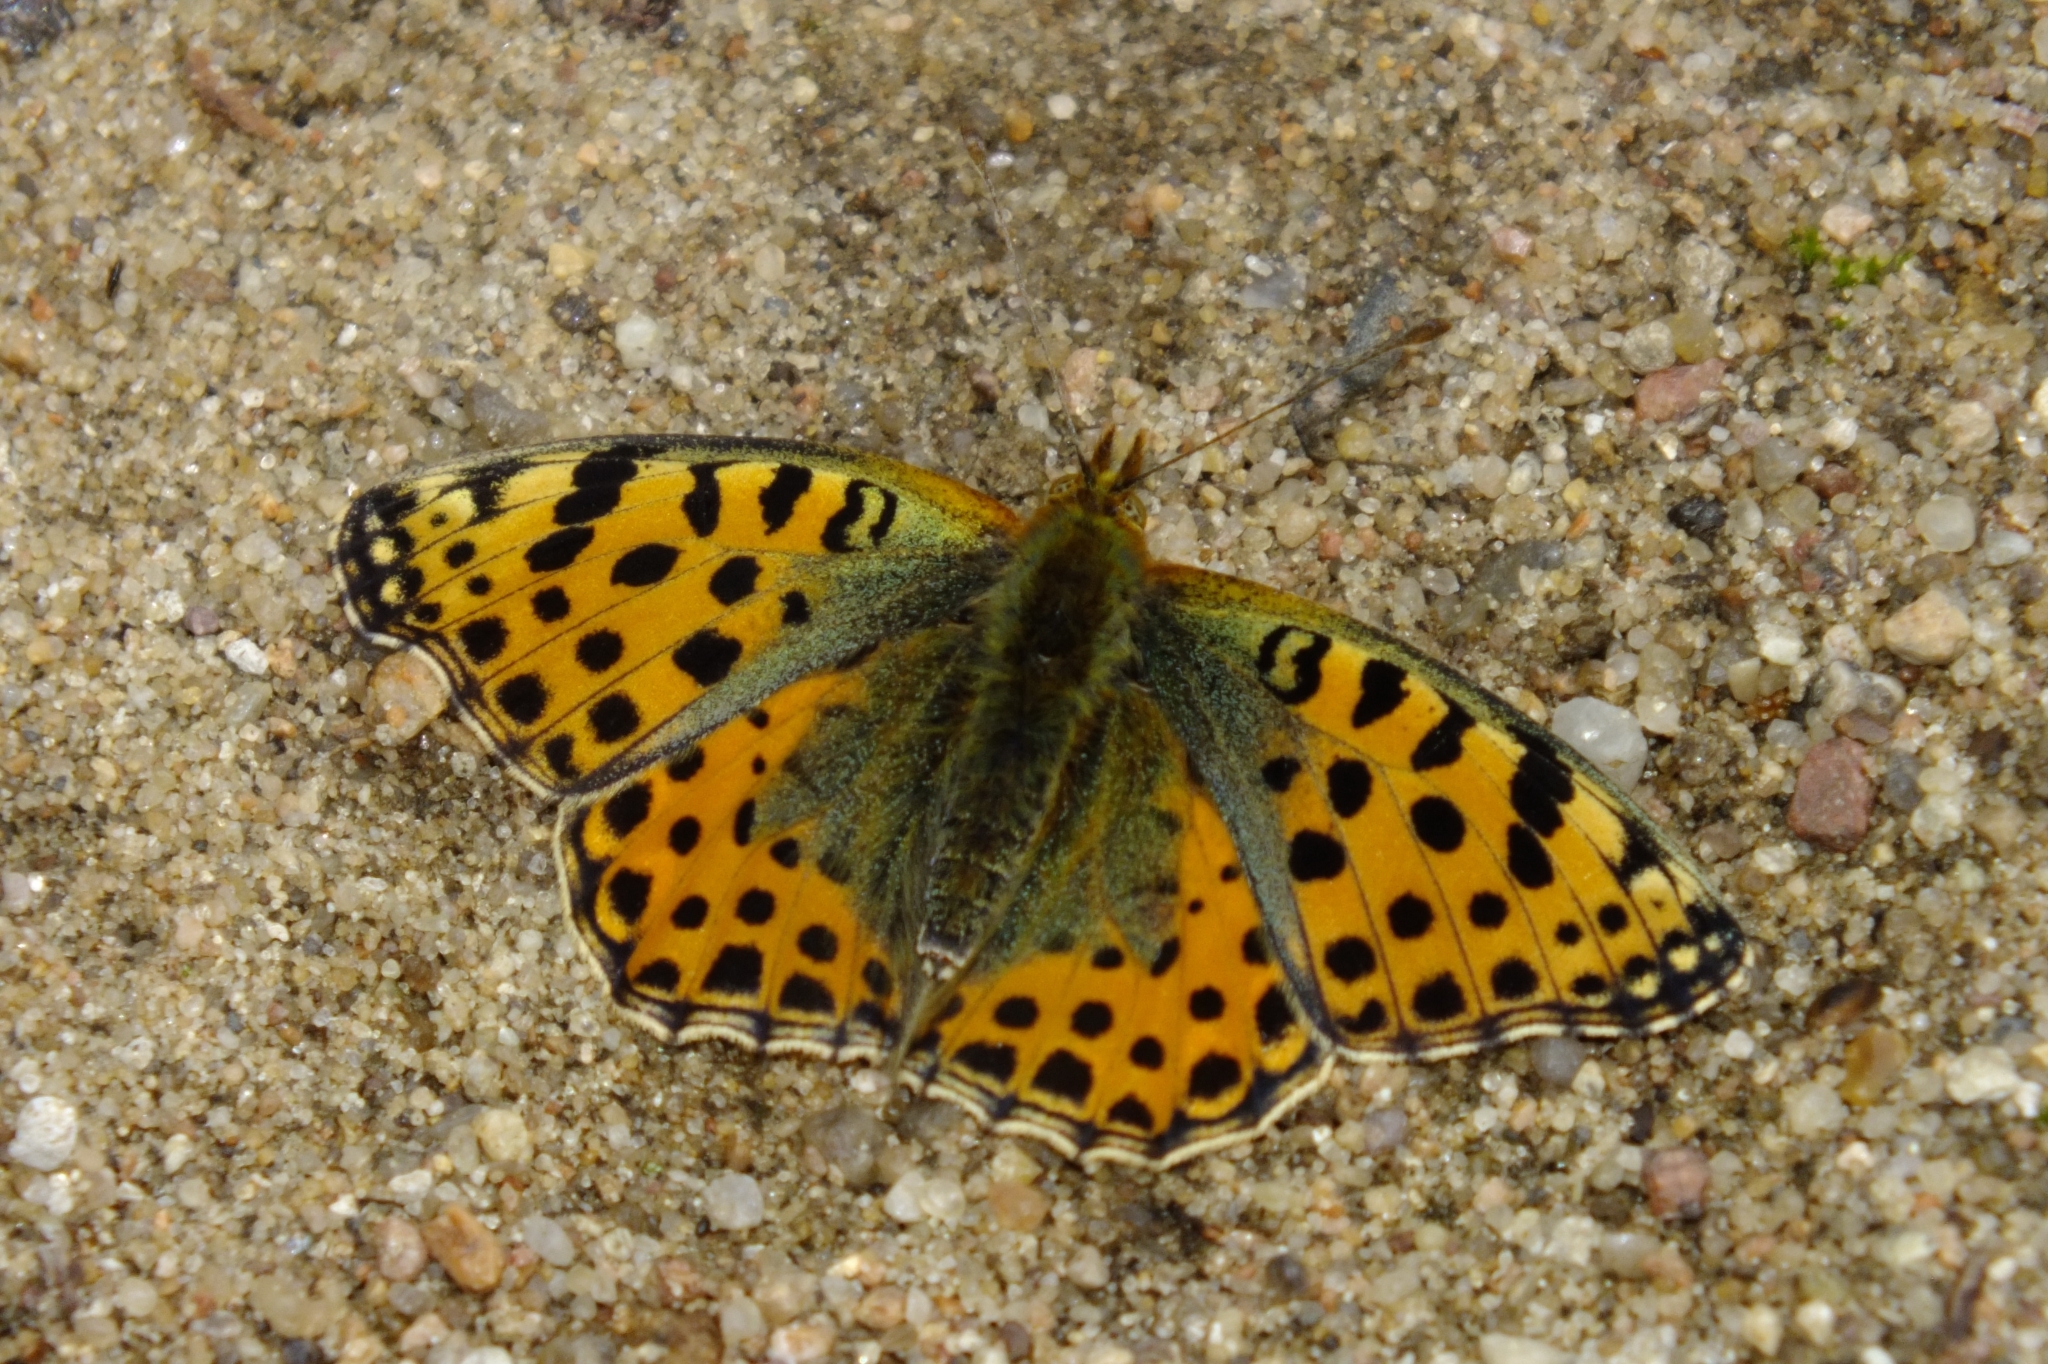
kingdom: Animalia
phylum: Arthropoda
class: Insecta
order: Lepidoptera
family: Nymphalidae
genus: Issoria
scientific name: Issoria lathonia
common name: Queen of spain fritillary
